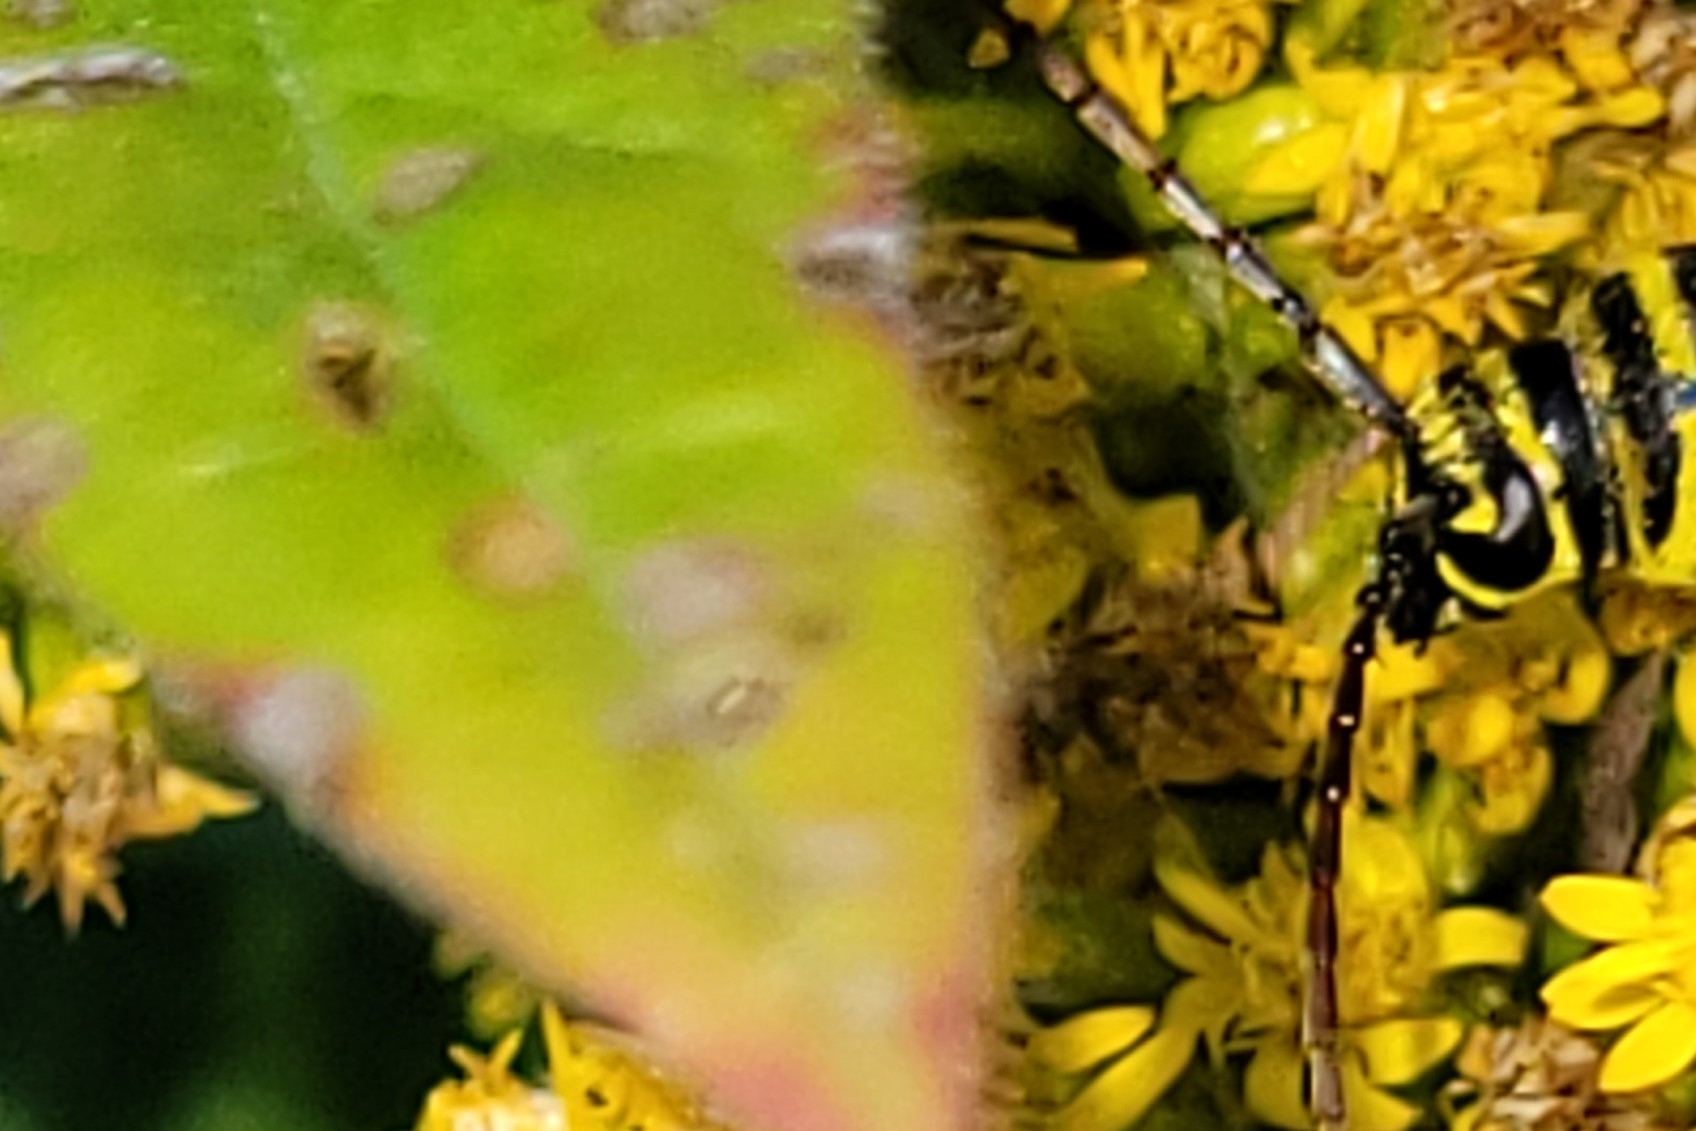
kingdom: Animalia
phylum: Arthropoda
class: Insecta
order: Coleoptera
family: Cerambycidae
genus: Megacyllene
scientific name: Megacyllene robiniae
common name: Locust borer
